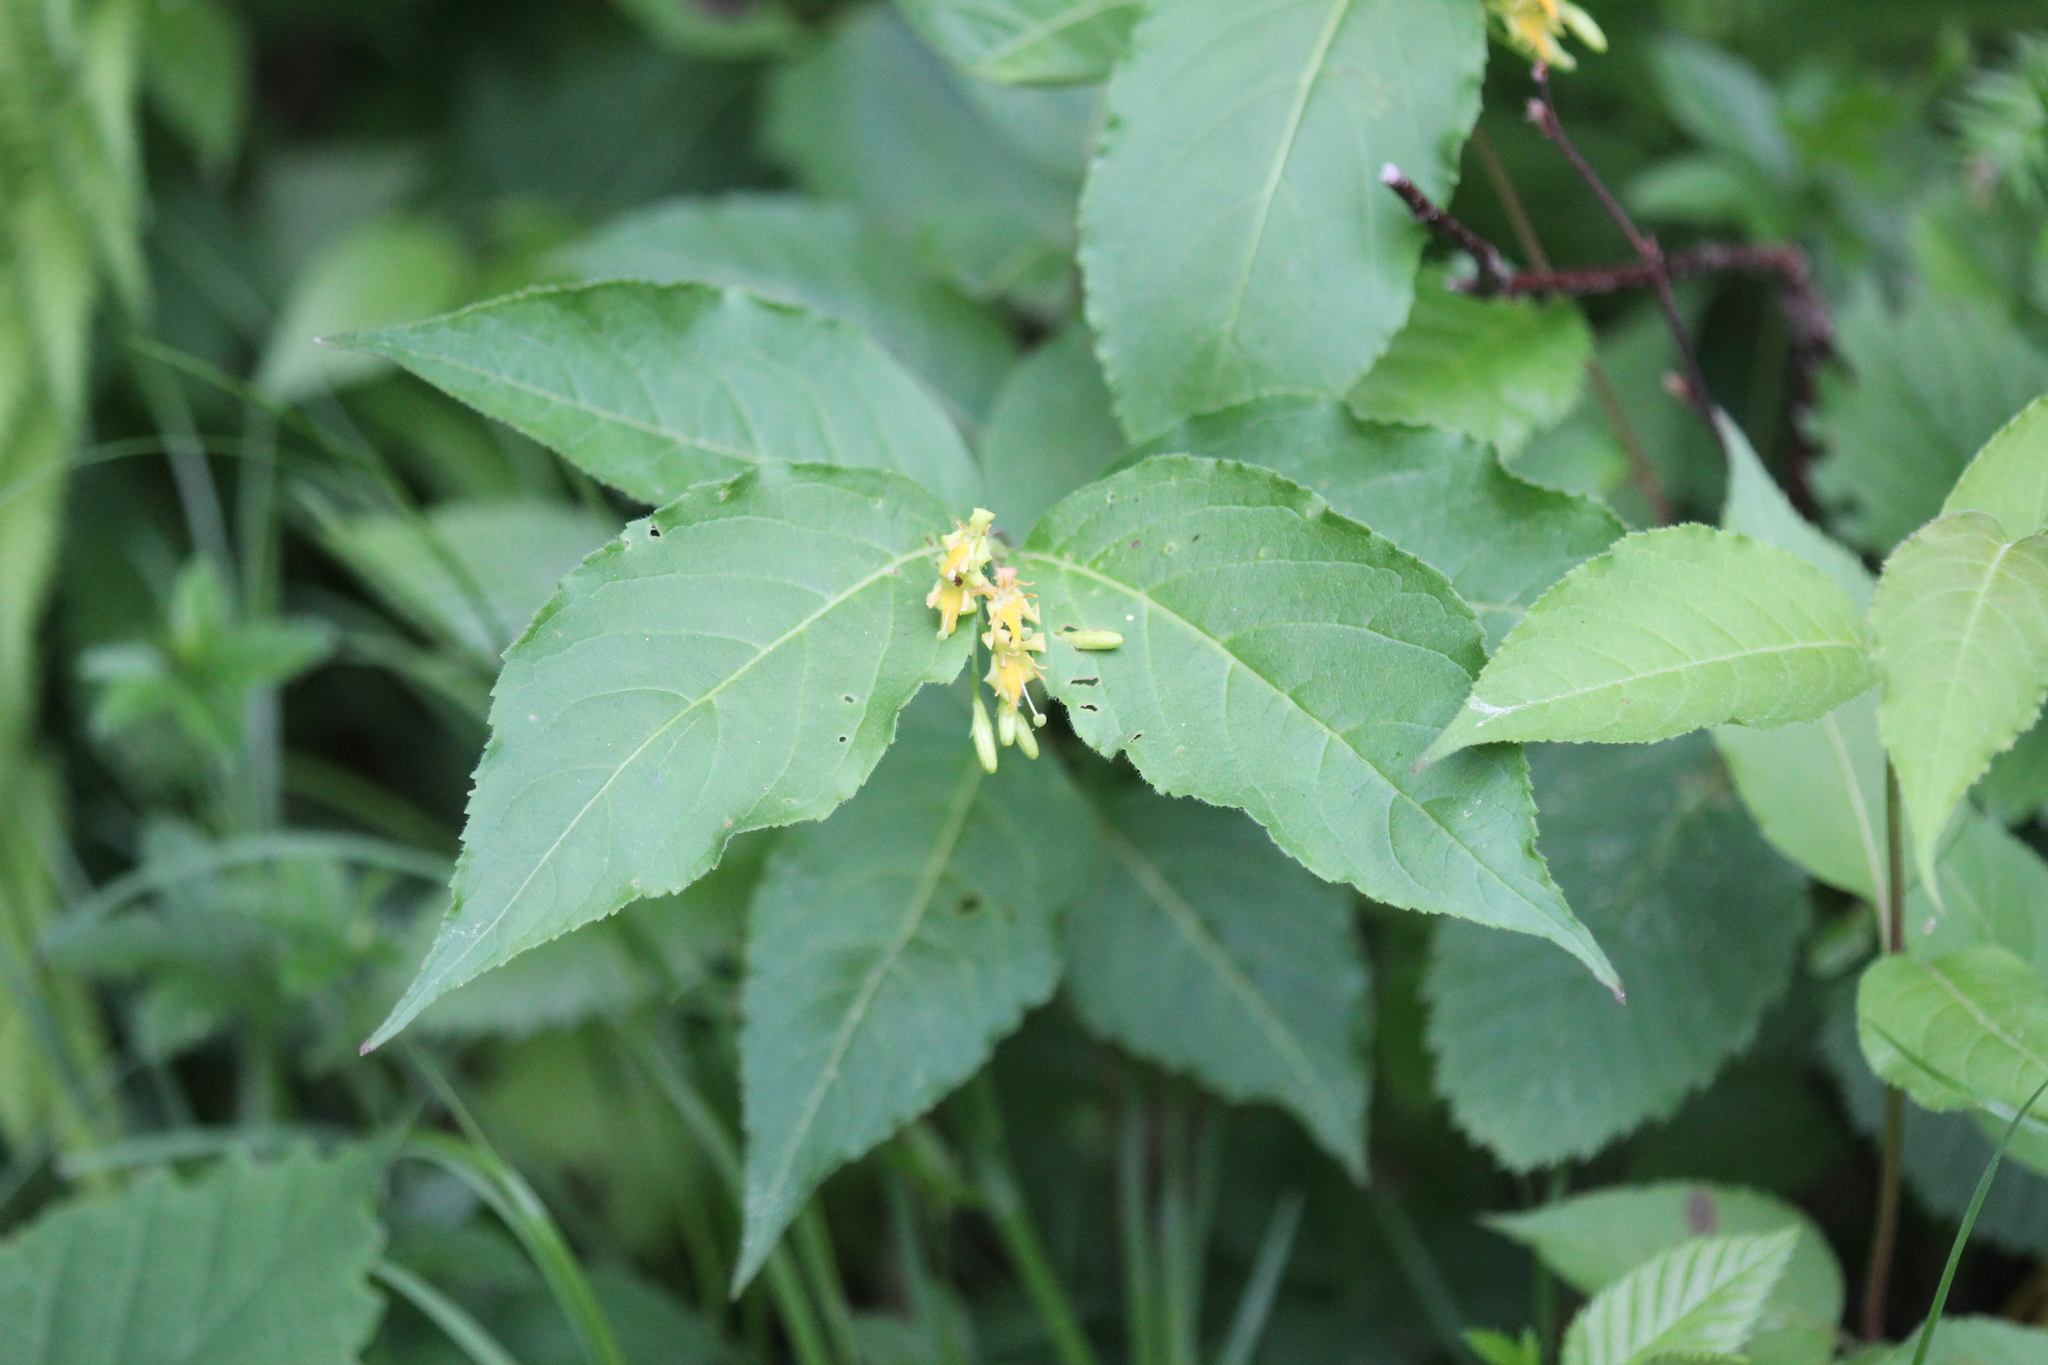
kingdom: Plantae
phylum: Tracheophyta
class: Magnoliopsida
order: Dipsacales
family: Caprifoliaceae
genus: Diervilla
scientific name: Diervilla lonicera
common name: Bush-honeysuckle
